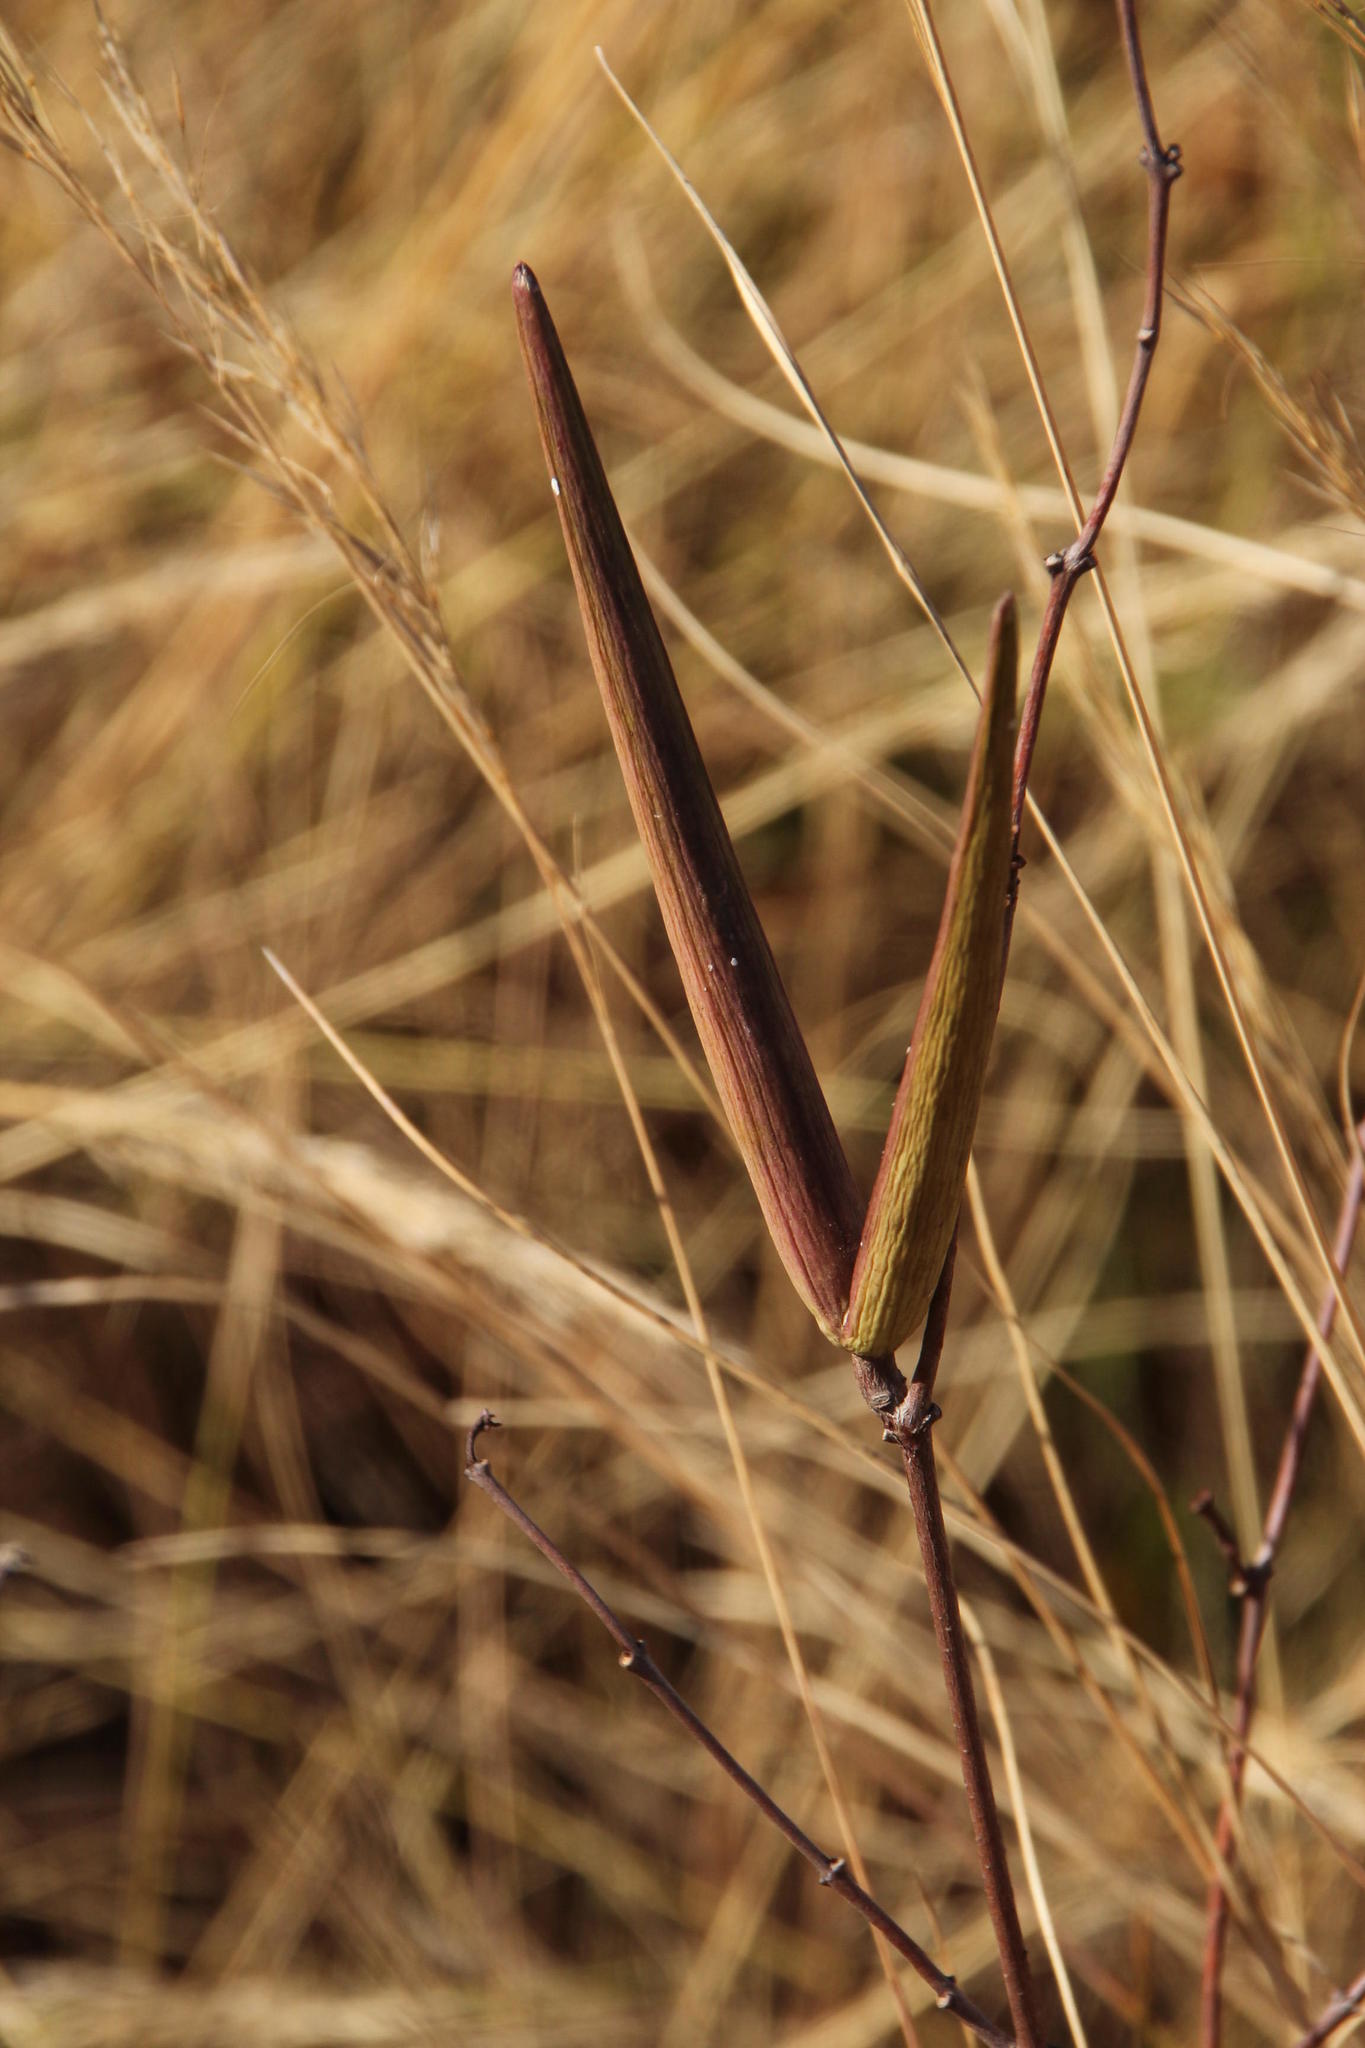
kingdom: Plantae
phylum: Tracheophyta
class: Magnoliopsida
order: Gentianales
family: Apocynaceae
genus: Cryptolepis
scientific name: Cryptolepis oblongifolia
